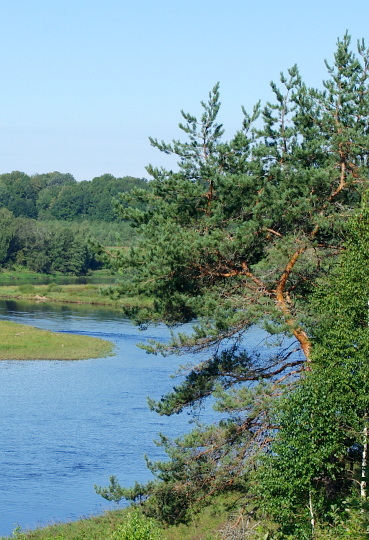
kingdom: Plantae
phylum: Tracheophyta
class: Pinopsida
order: Pinales
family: Pinaceae
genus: Pinus
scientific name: Pinus sylvestris
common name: Scots pine
